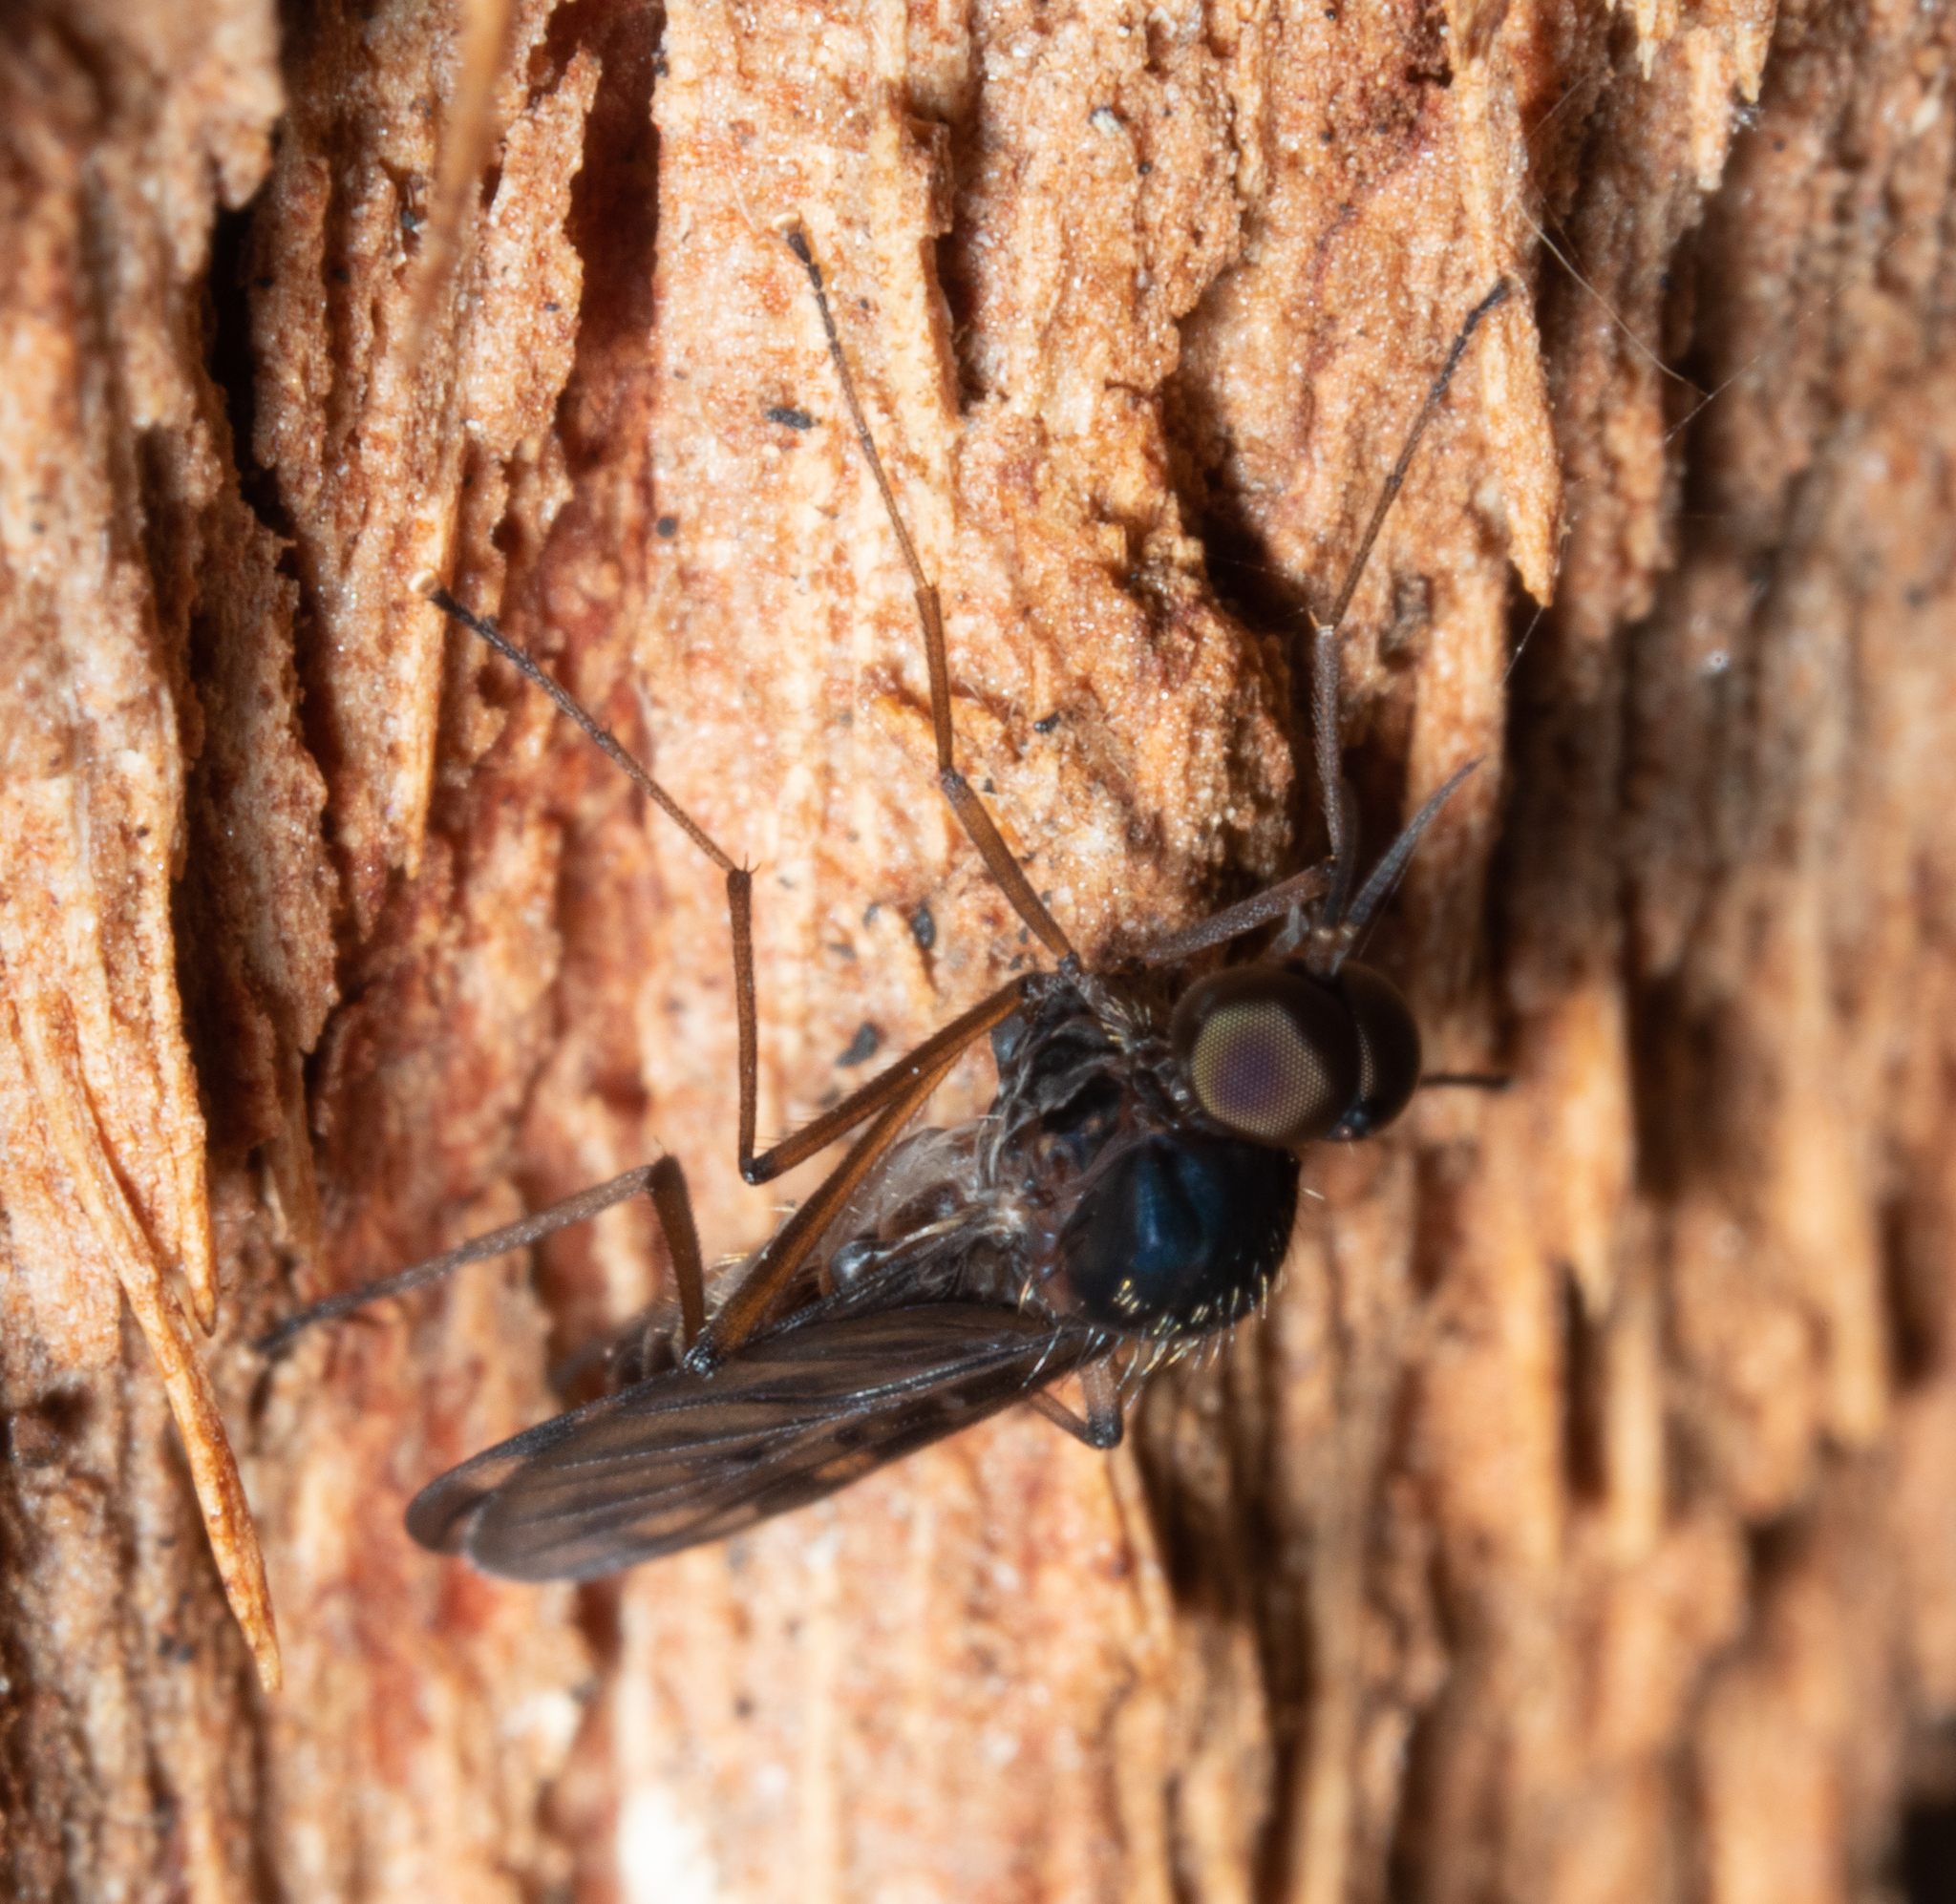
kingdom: Animalia
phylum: Arthropoda
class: Insecta
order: Diptera
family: Anisopodidae
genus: Sylvicola
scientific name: Sylvicola dubius
